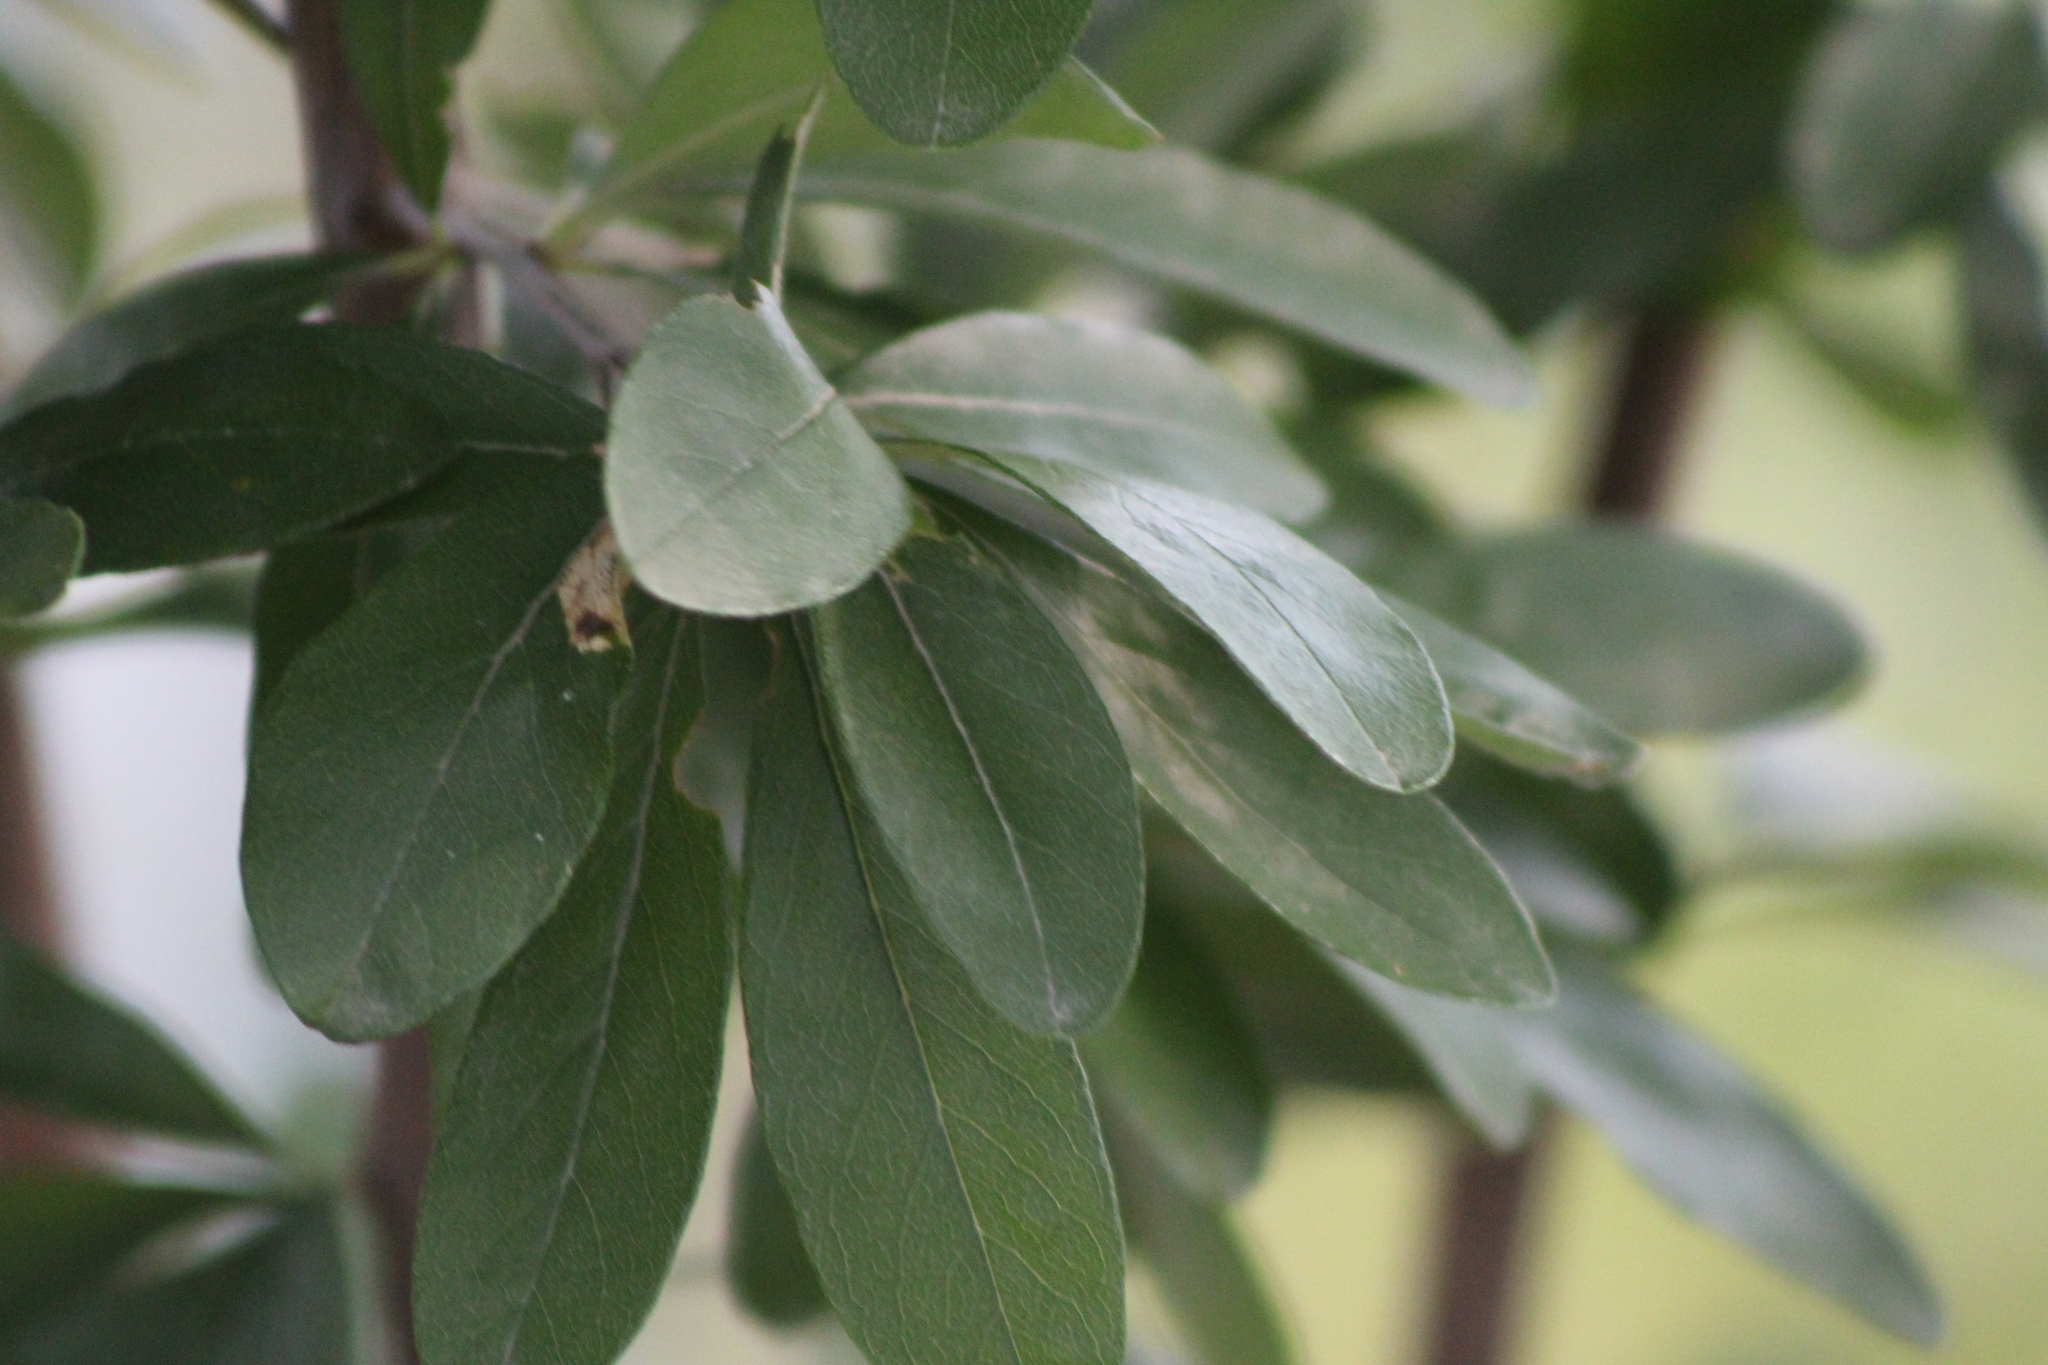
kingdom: Plantae
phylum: Tracheophyta
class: Magnoliopsida
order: Ericales
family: Sapotaceae
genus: Sideroxylon
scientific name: Sideroxylon lanuginosum
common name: Chittamwood
